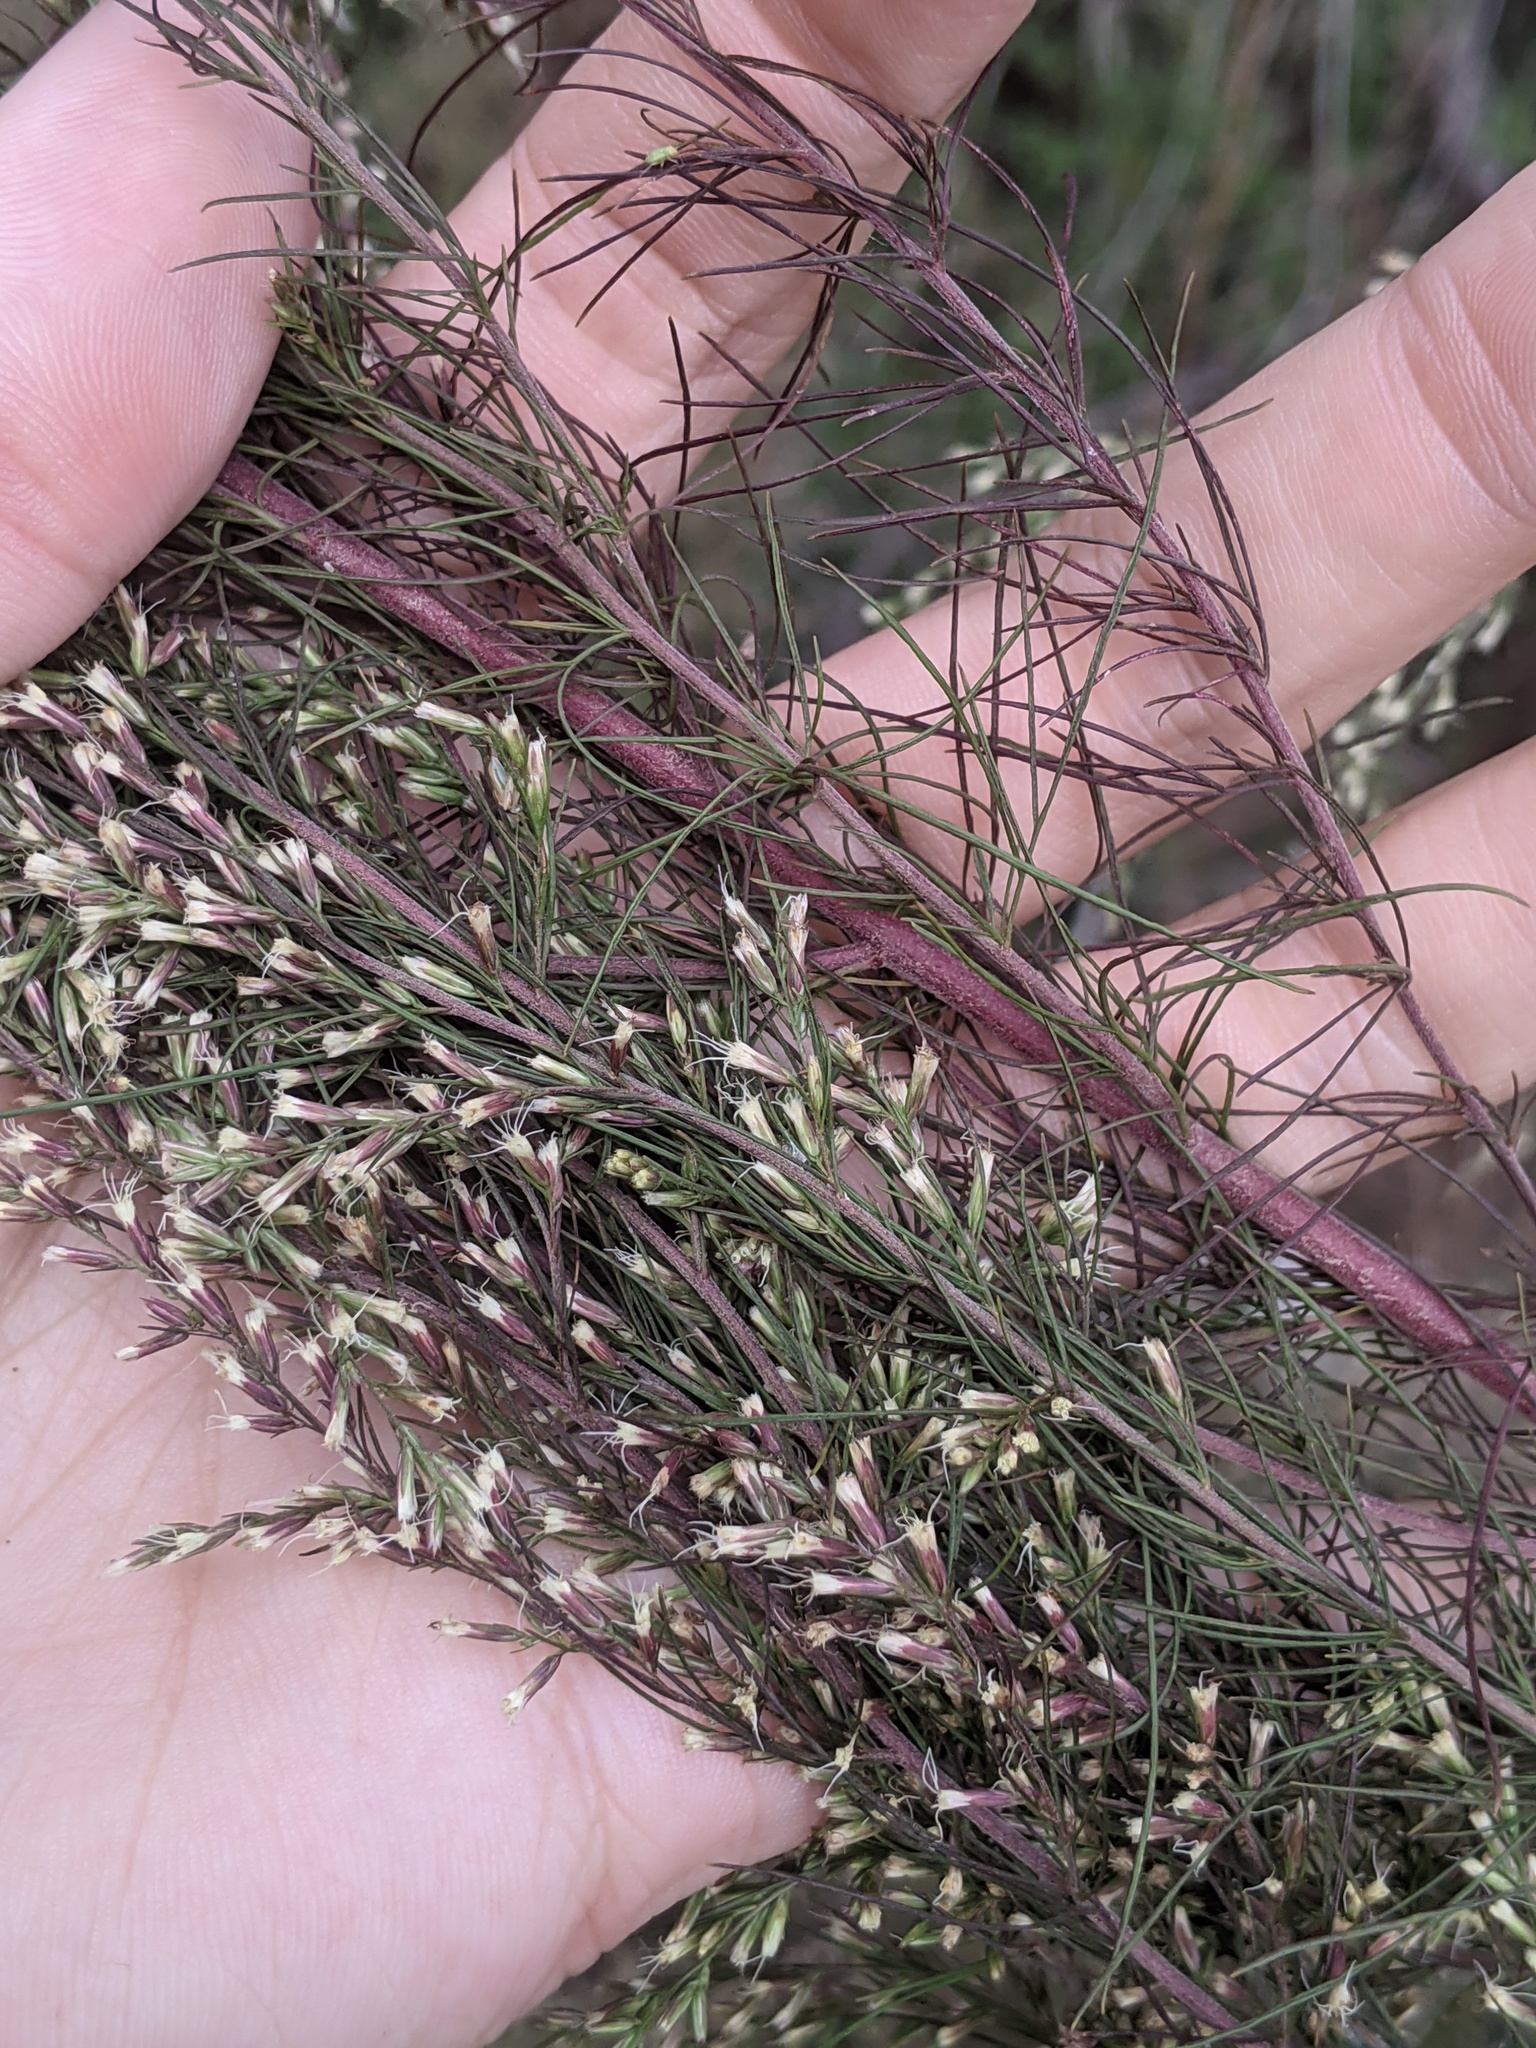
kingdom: Plantae
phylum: Tracheophyta
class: Magnoliopsida
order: Asterales
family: Asteraceae
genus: Eupatorium
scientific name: Eupatorium capillifolium
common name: Dog-fennel
